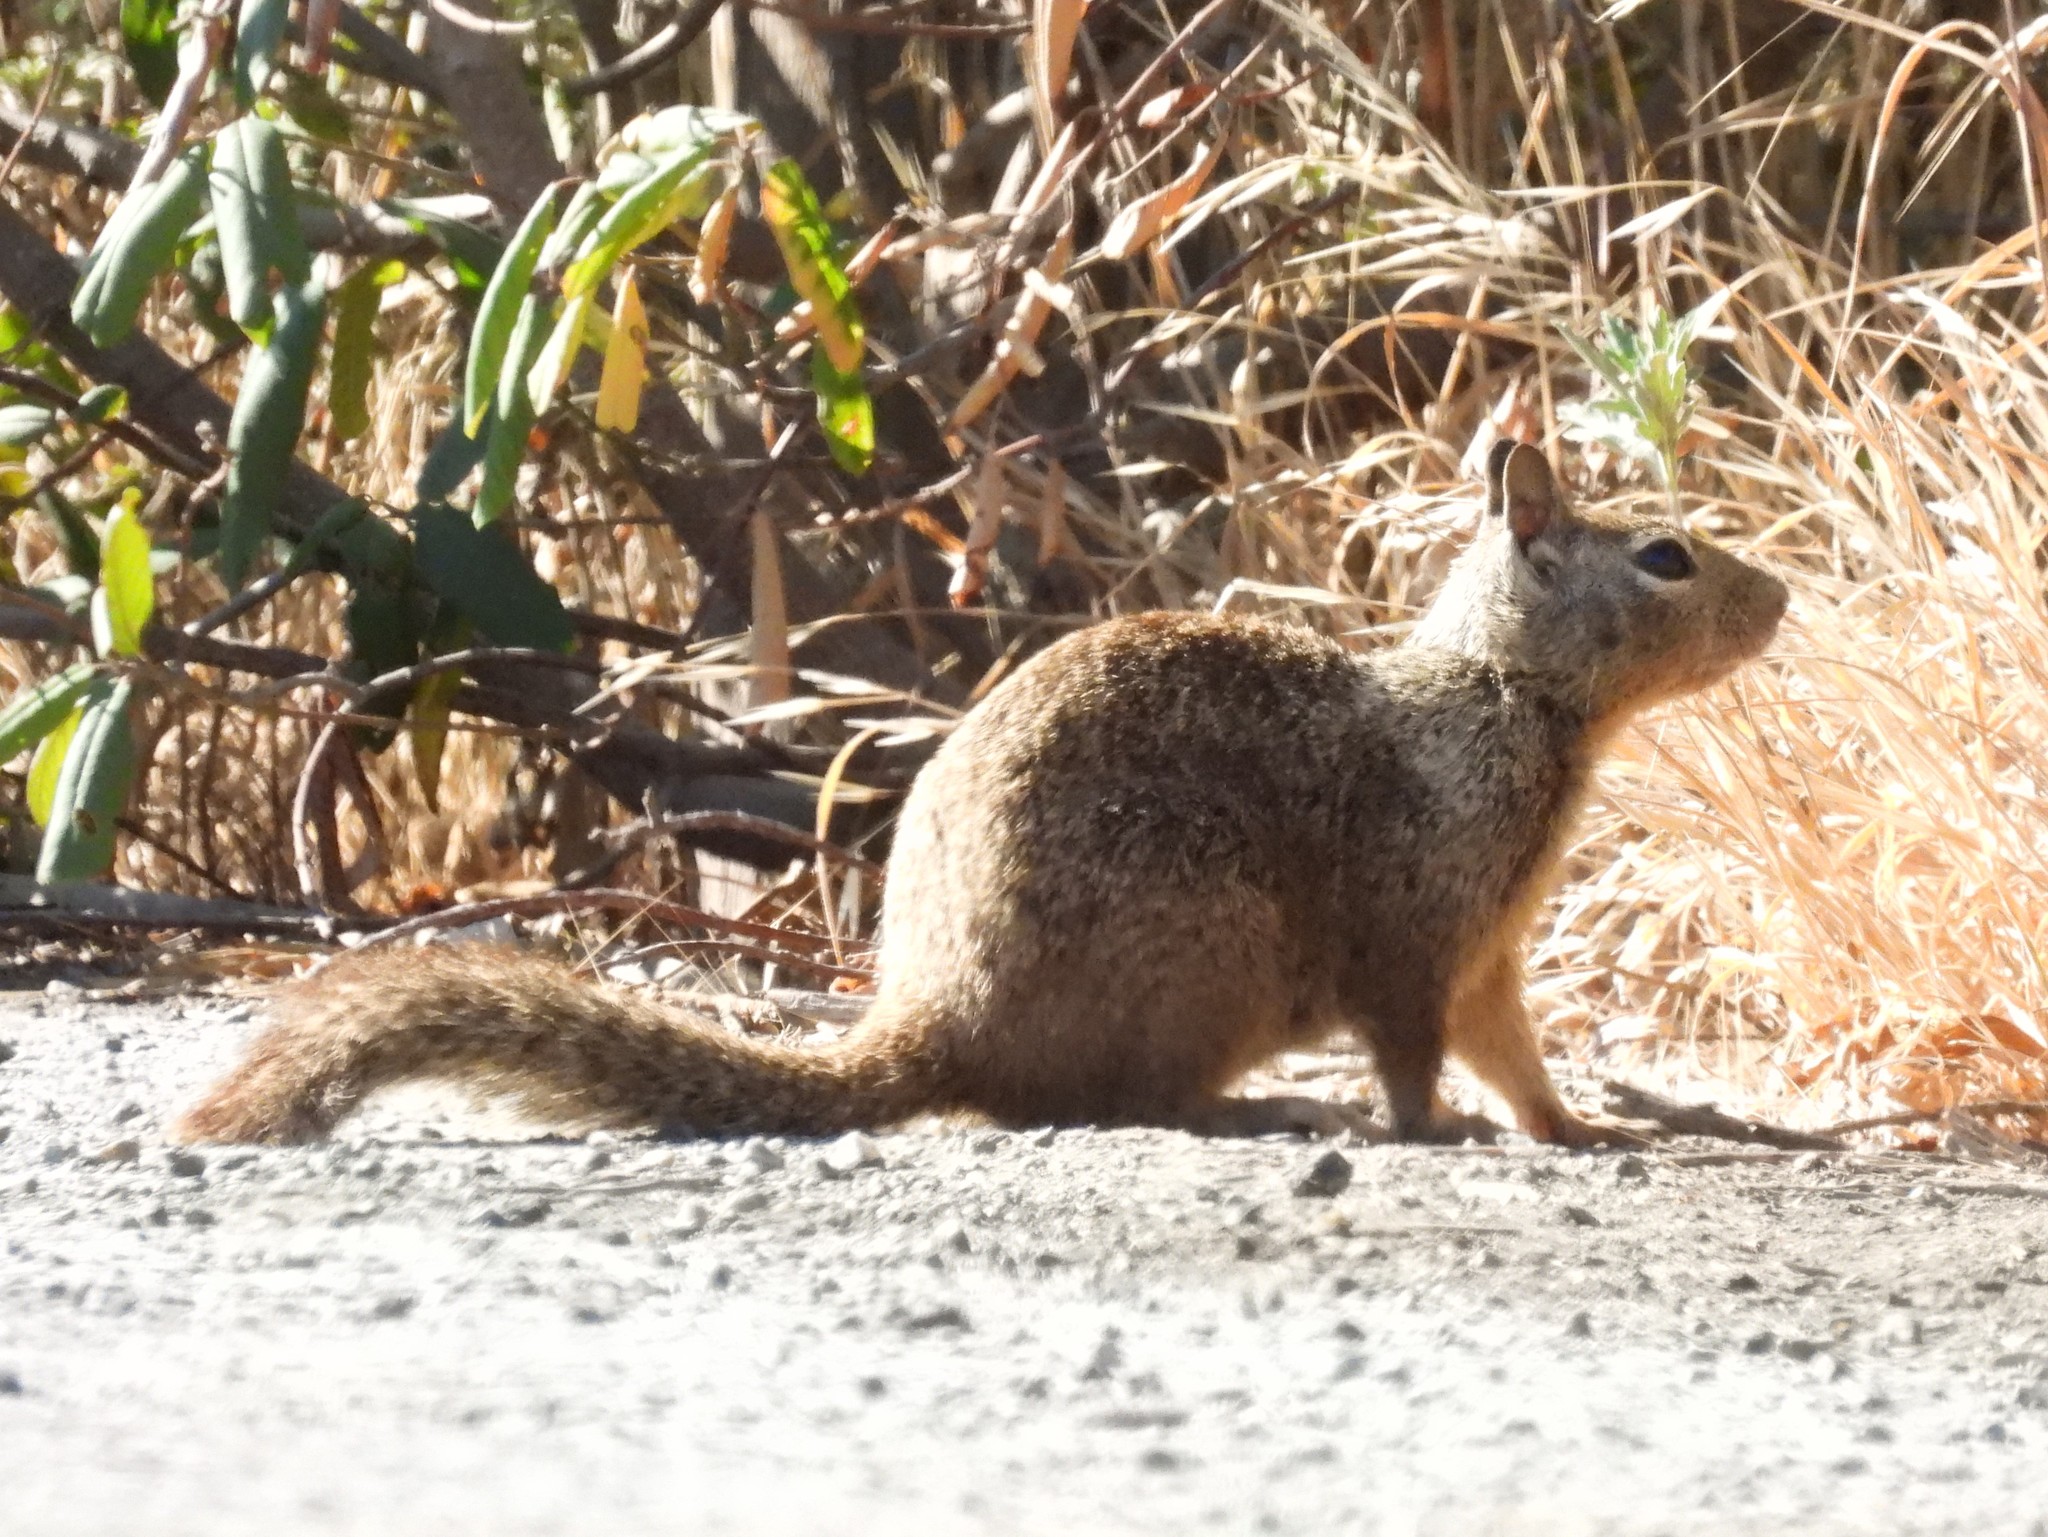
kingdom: Animalia
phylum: Chordata
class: Mammalia
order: Rodentia
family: Sciuridae
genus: Otospermophilus
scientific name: Otospermophilus beecheyi
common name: California ground squirrel
